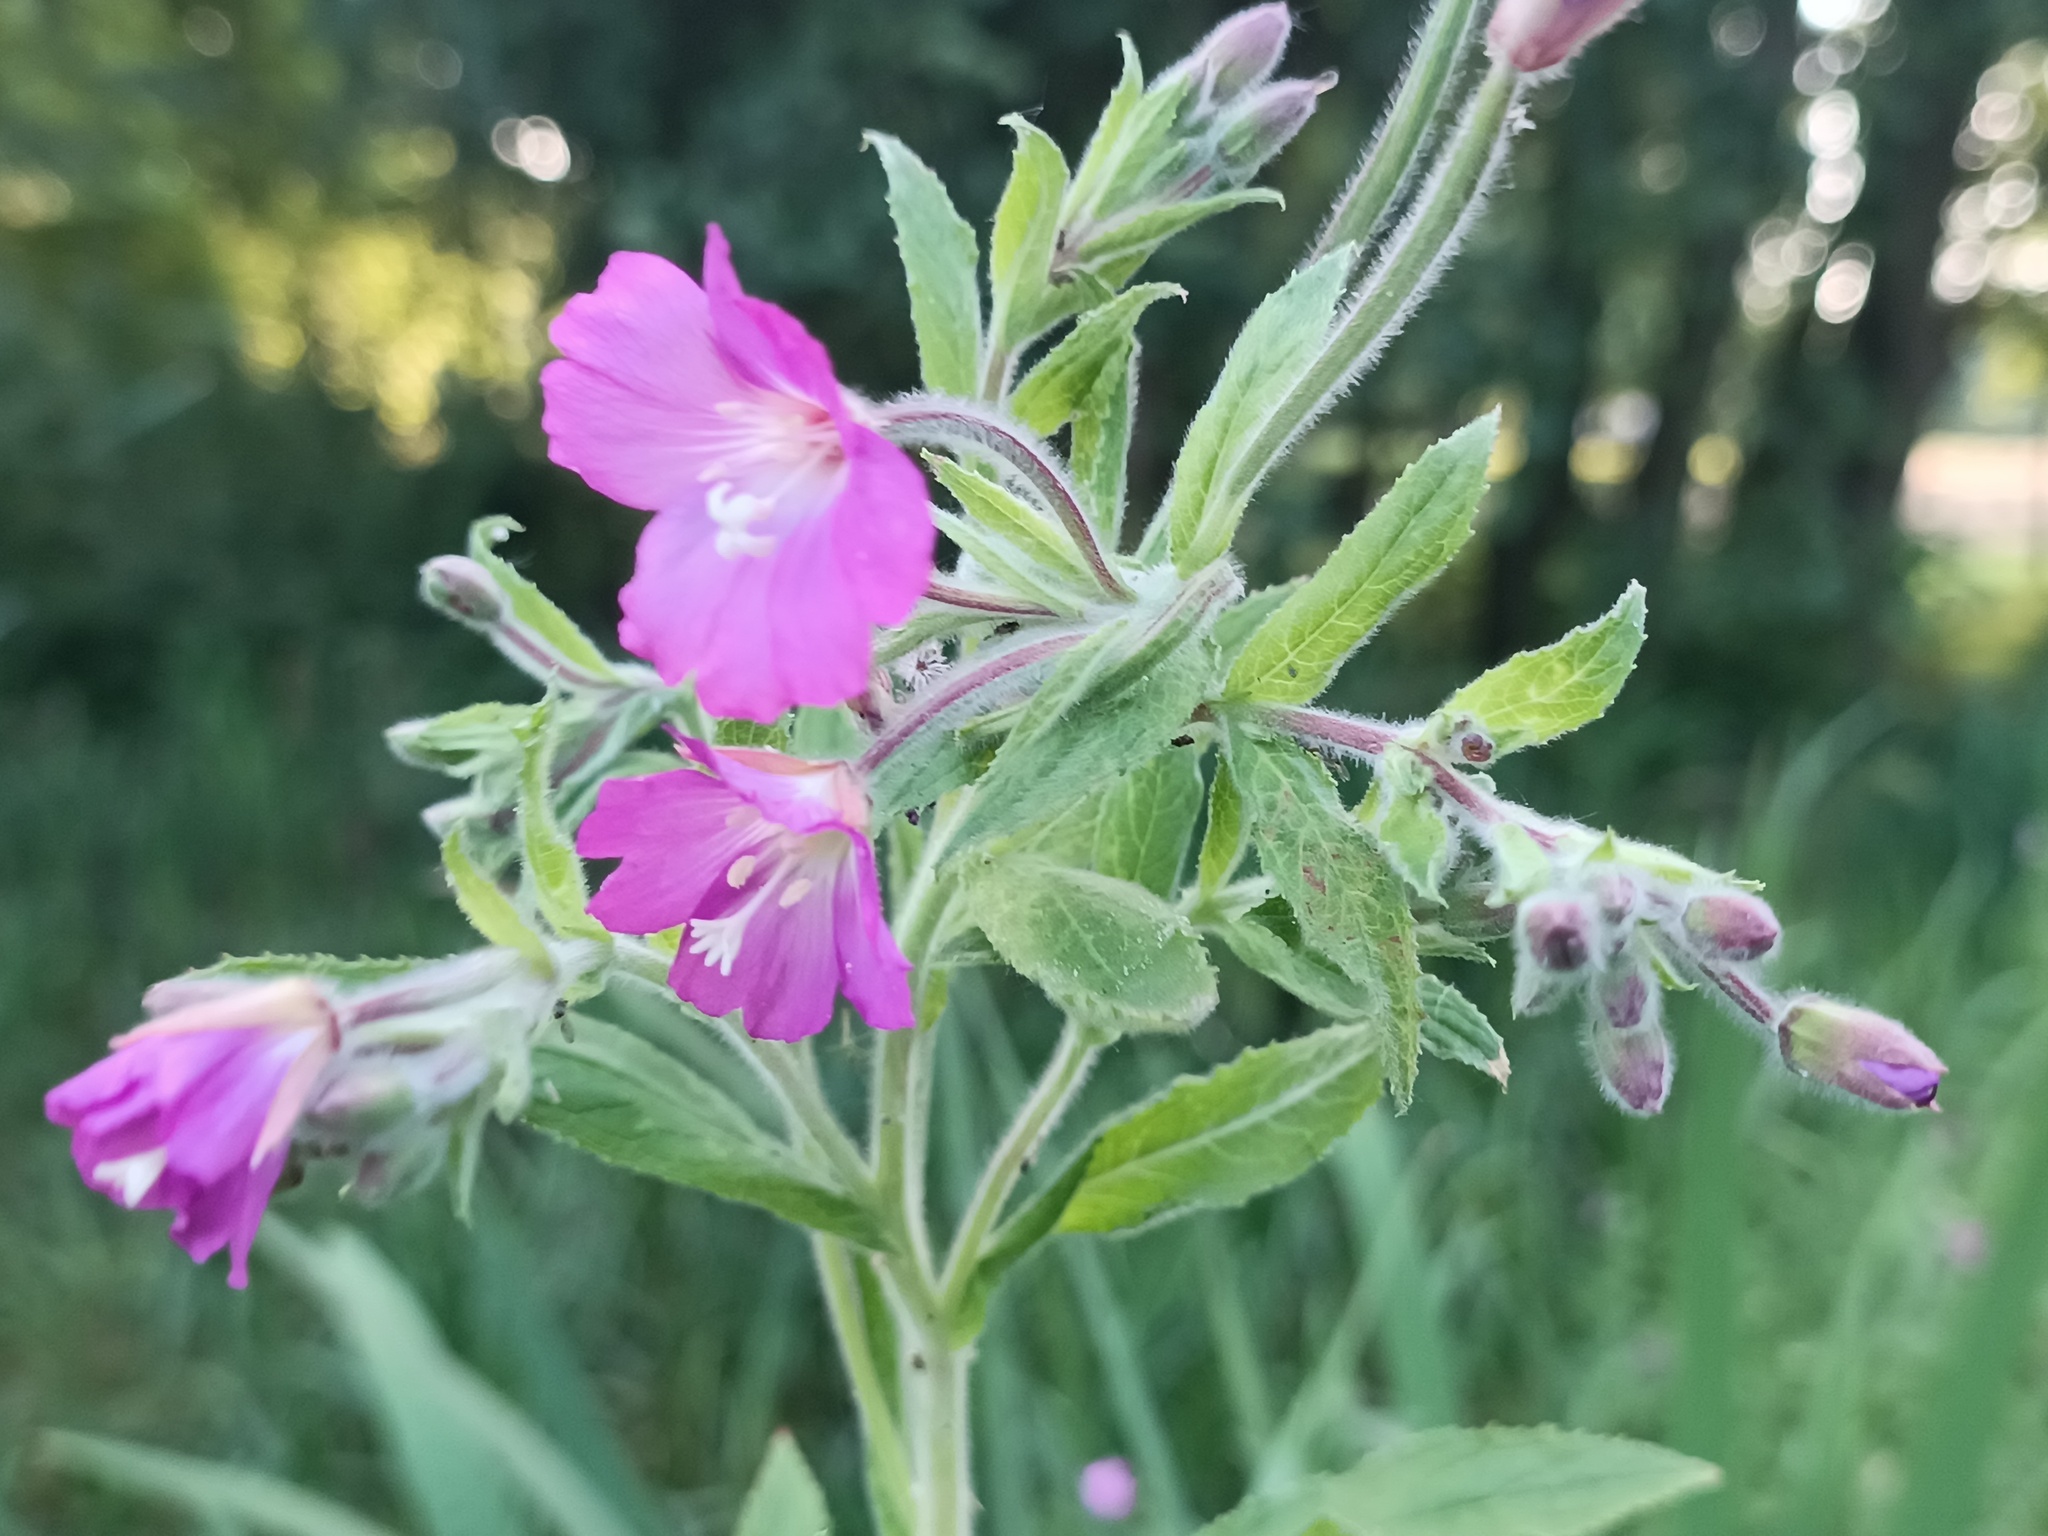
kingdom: Plantae
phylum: Tracheophyta
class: Magnoliopsida
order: Myrtales
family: Onagraceae
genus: Epilobium
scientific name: Epilobium hirsutum
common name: Great willowherb
